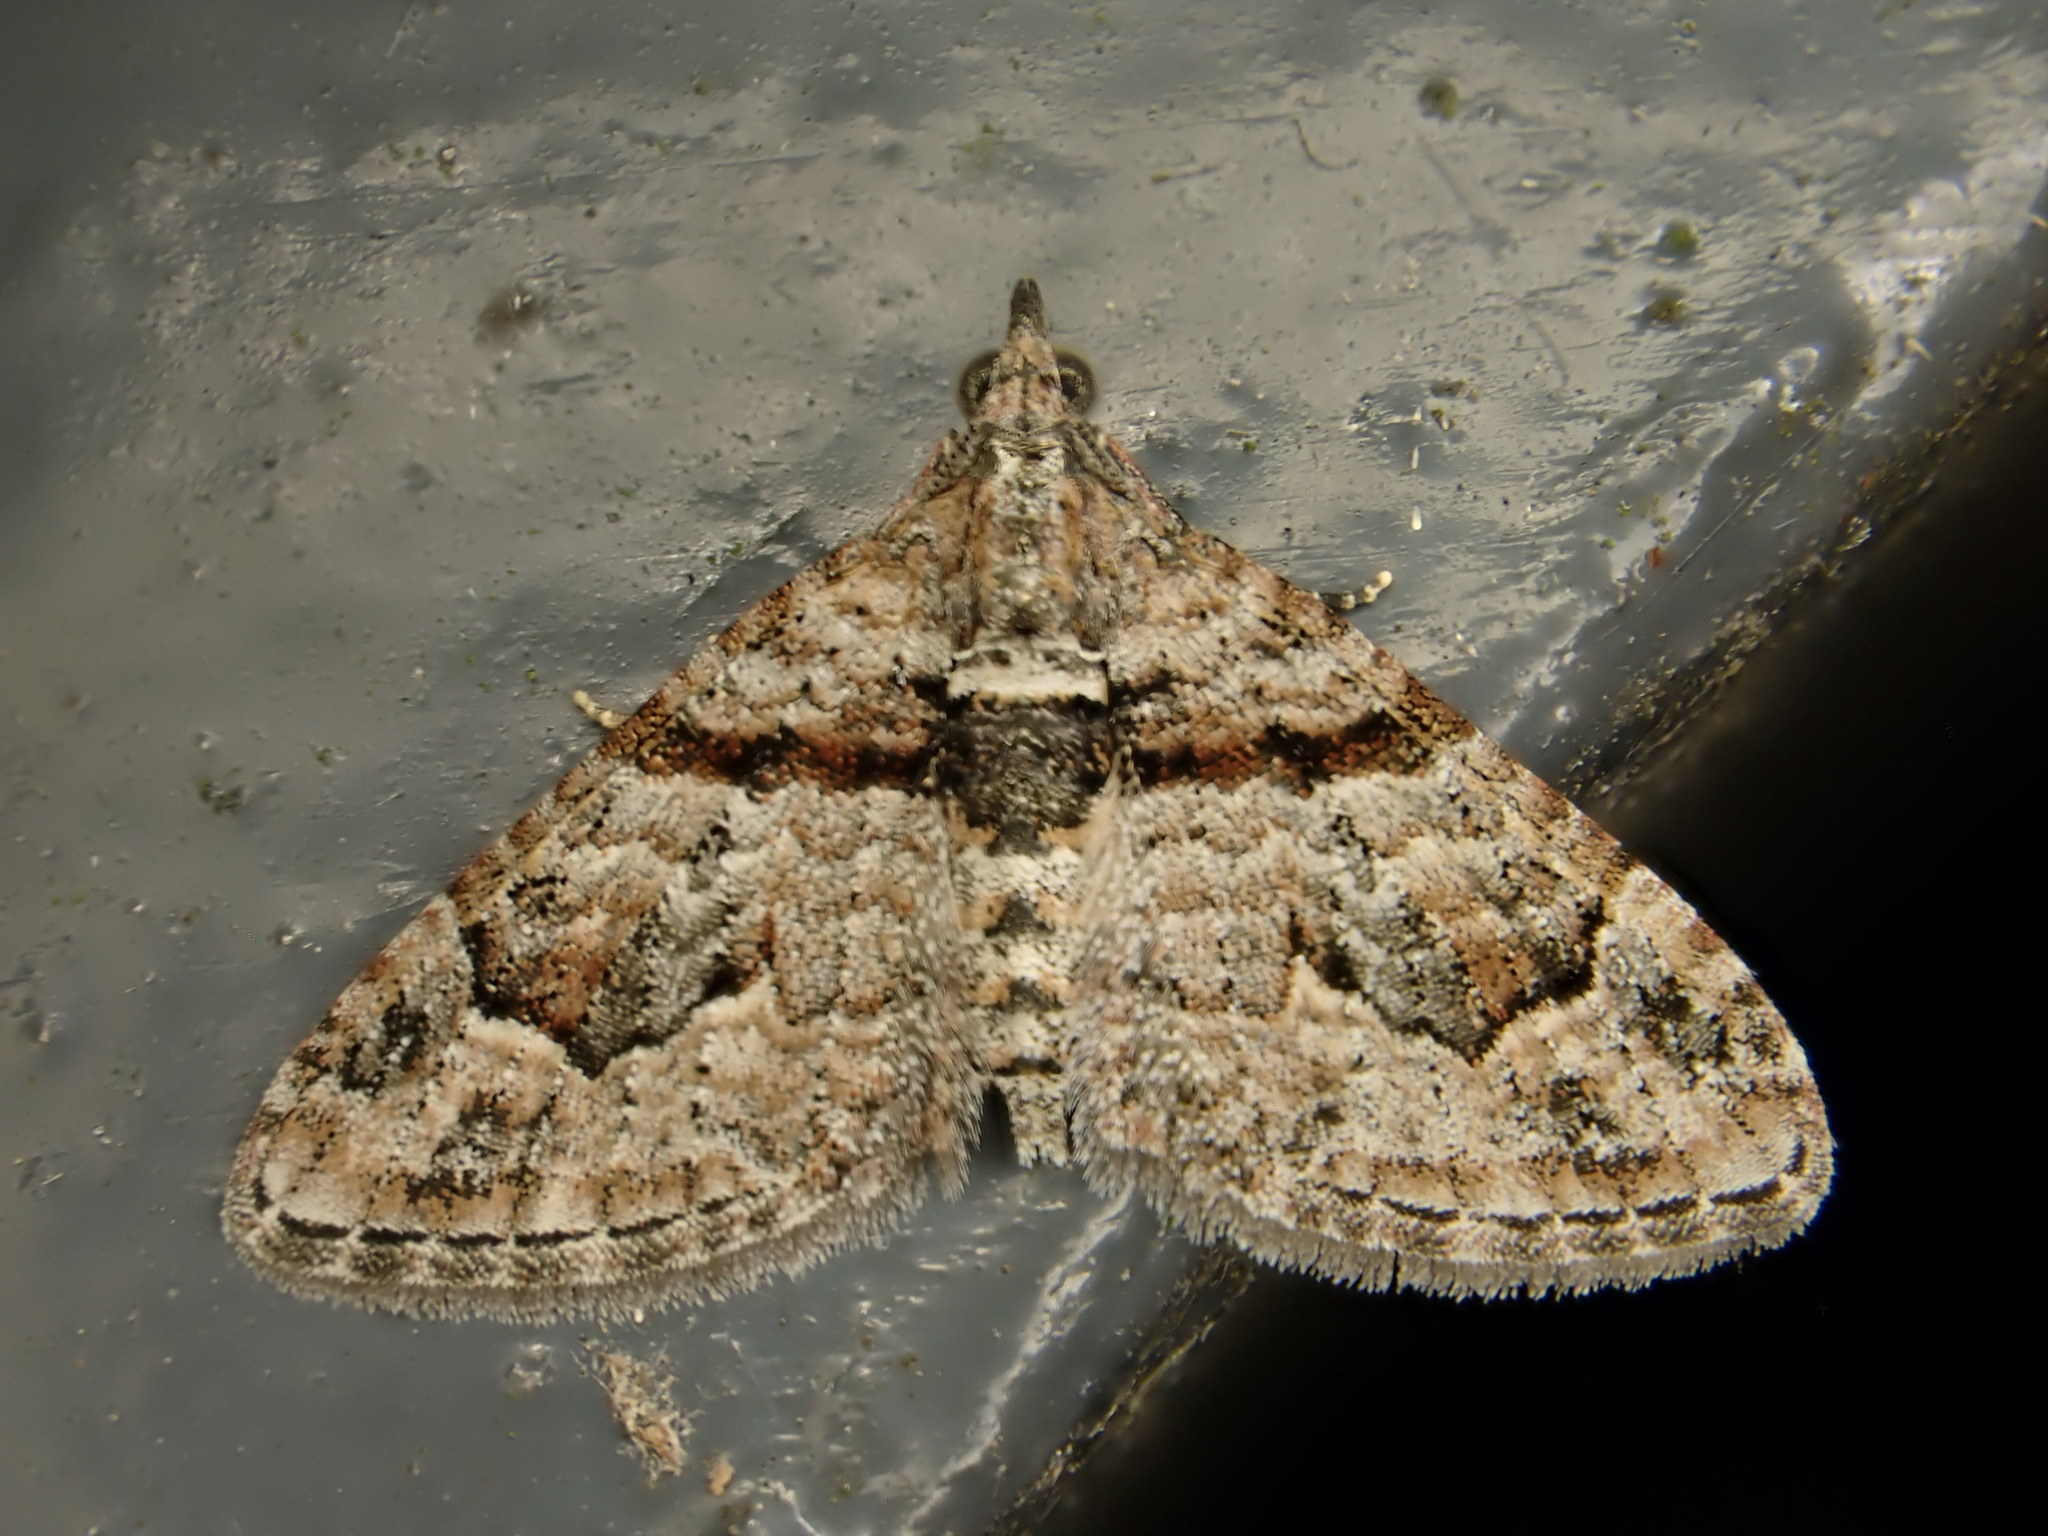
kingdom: Animalia
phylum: Arthropoda
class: Insecta
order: Lepidoptera
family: Geometridae
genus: Phrissogonus
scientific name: Phrissogonus laticostata
